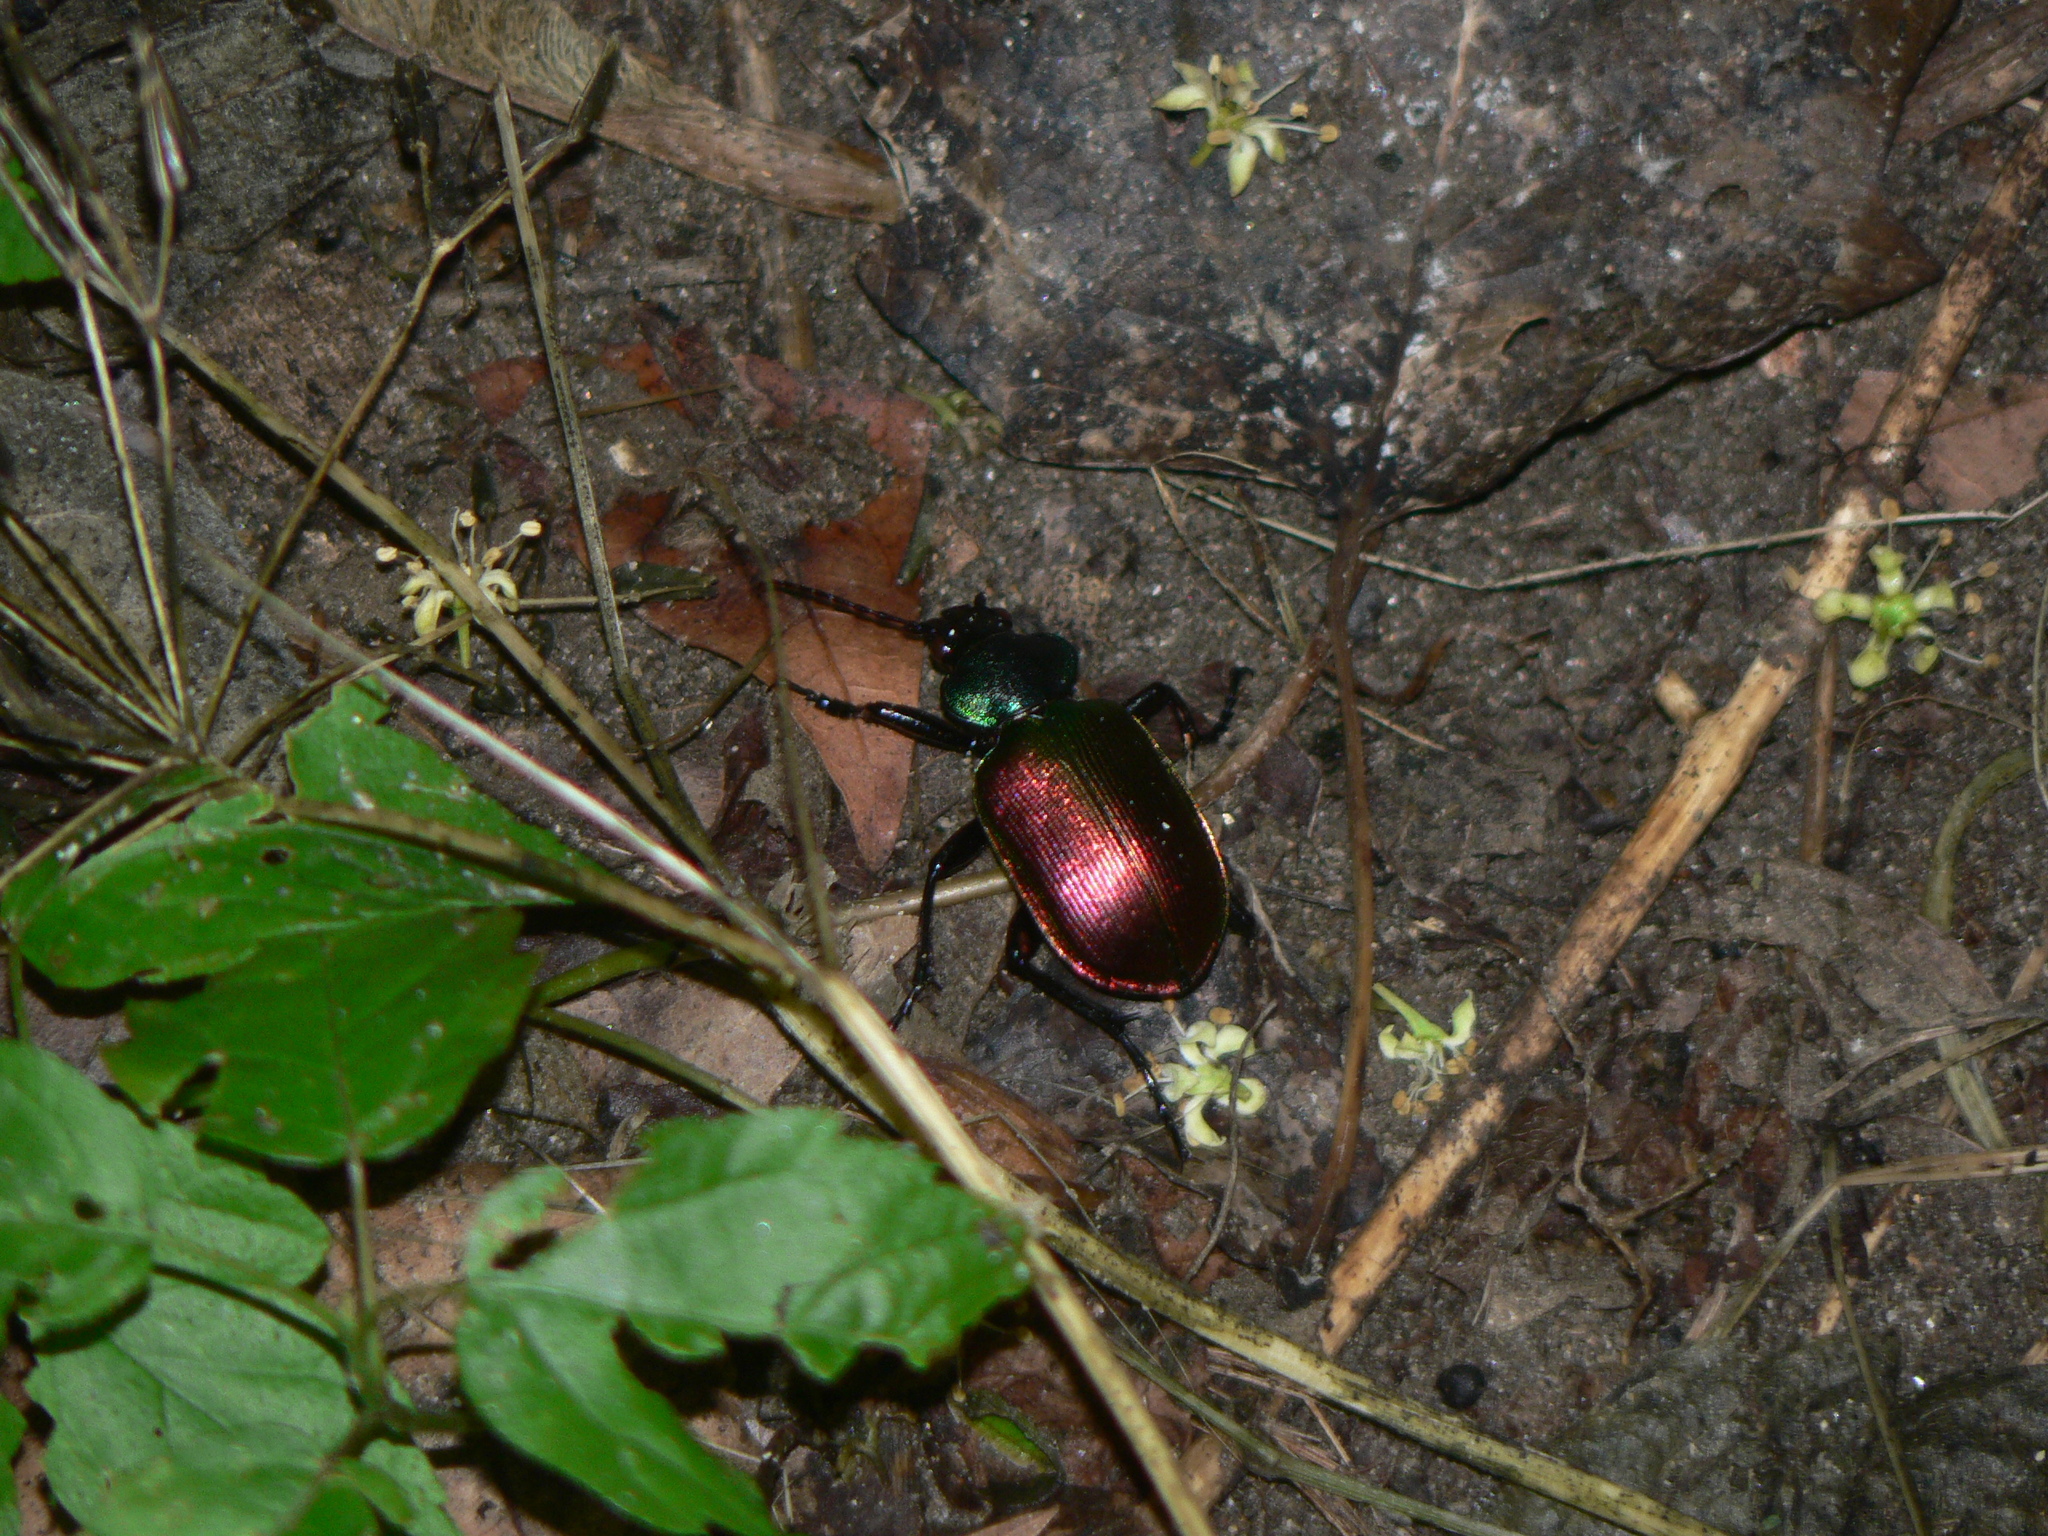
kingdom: Animalia
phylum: Arthropoda
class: Insecta
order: Coleoptera
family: Carabidae
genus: Calosoma
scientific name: Calosoma sycophanta
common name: Forest caterpillar hunter
